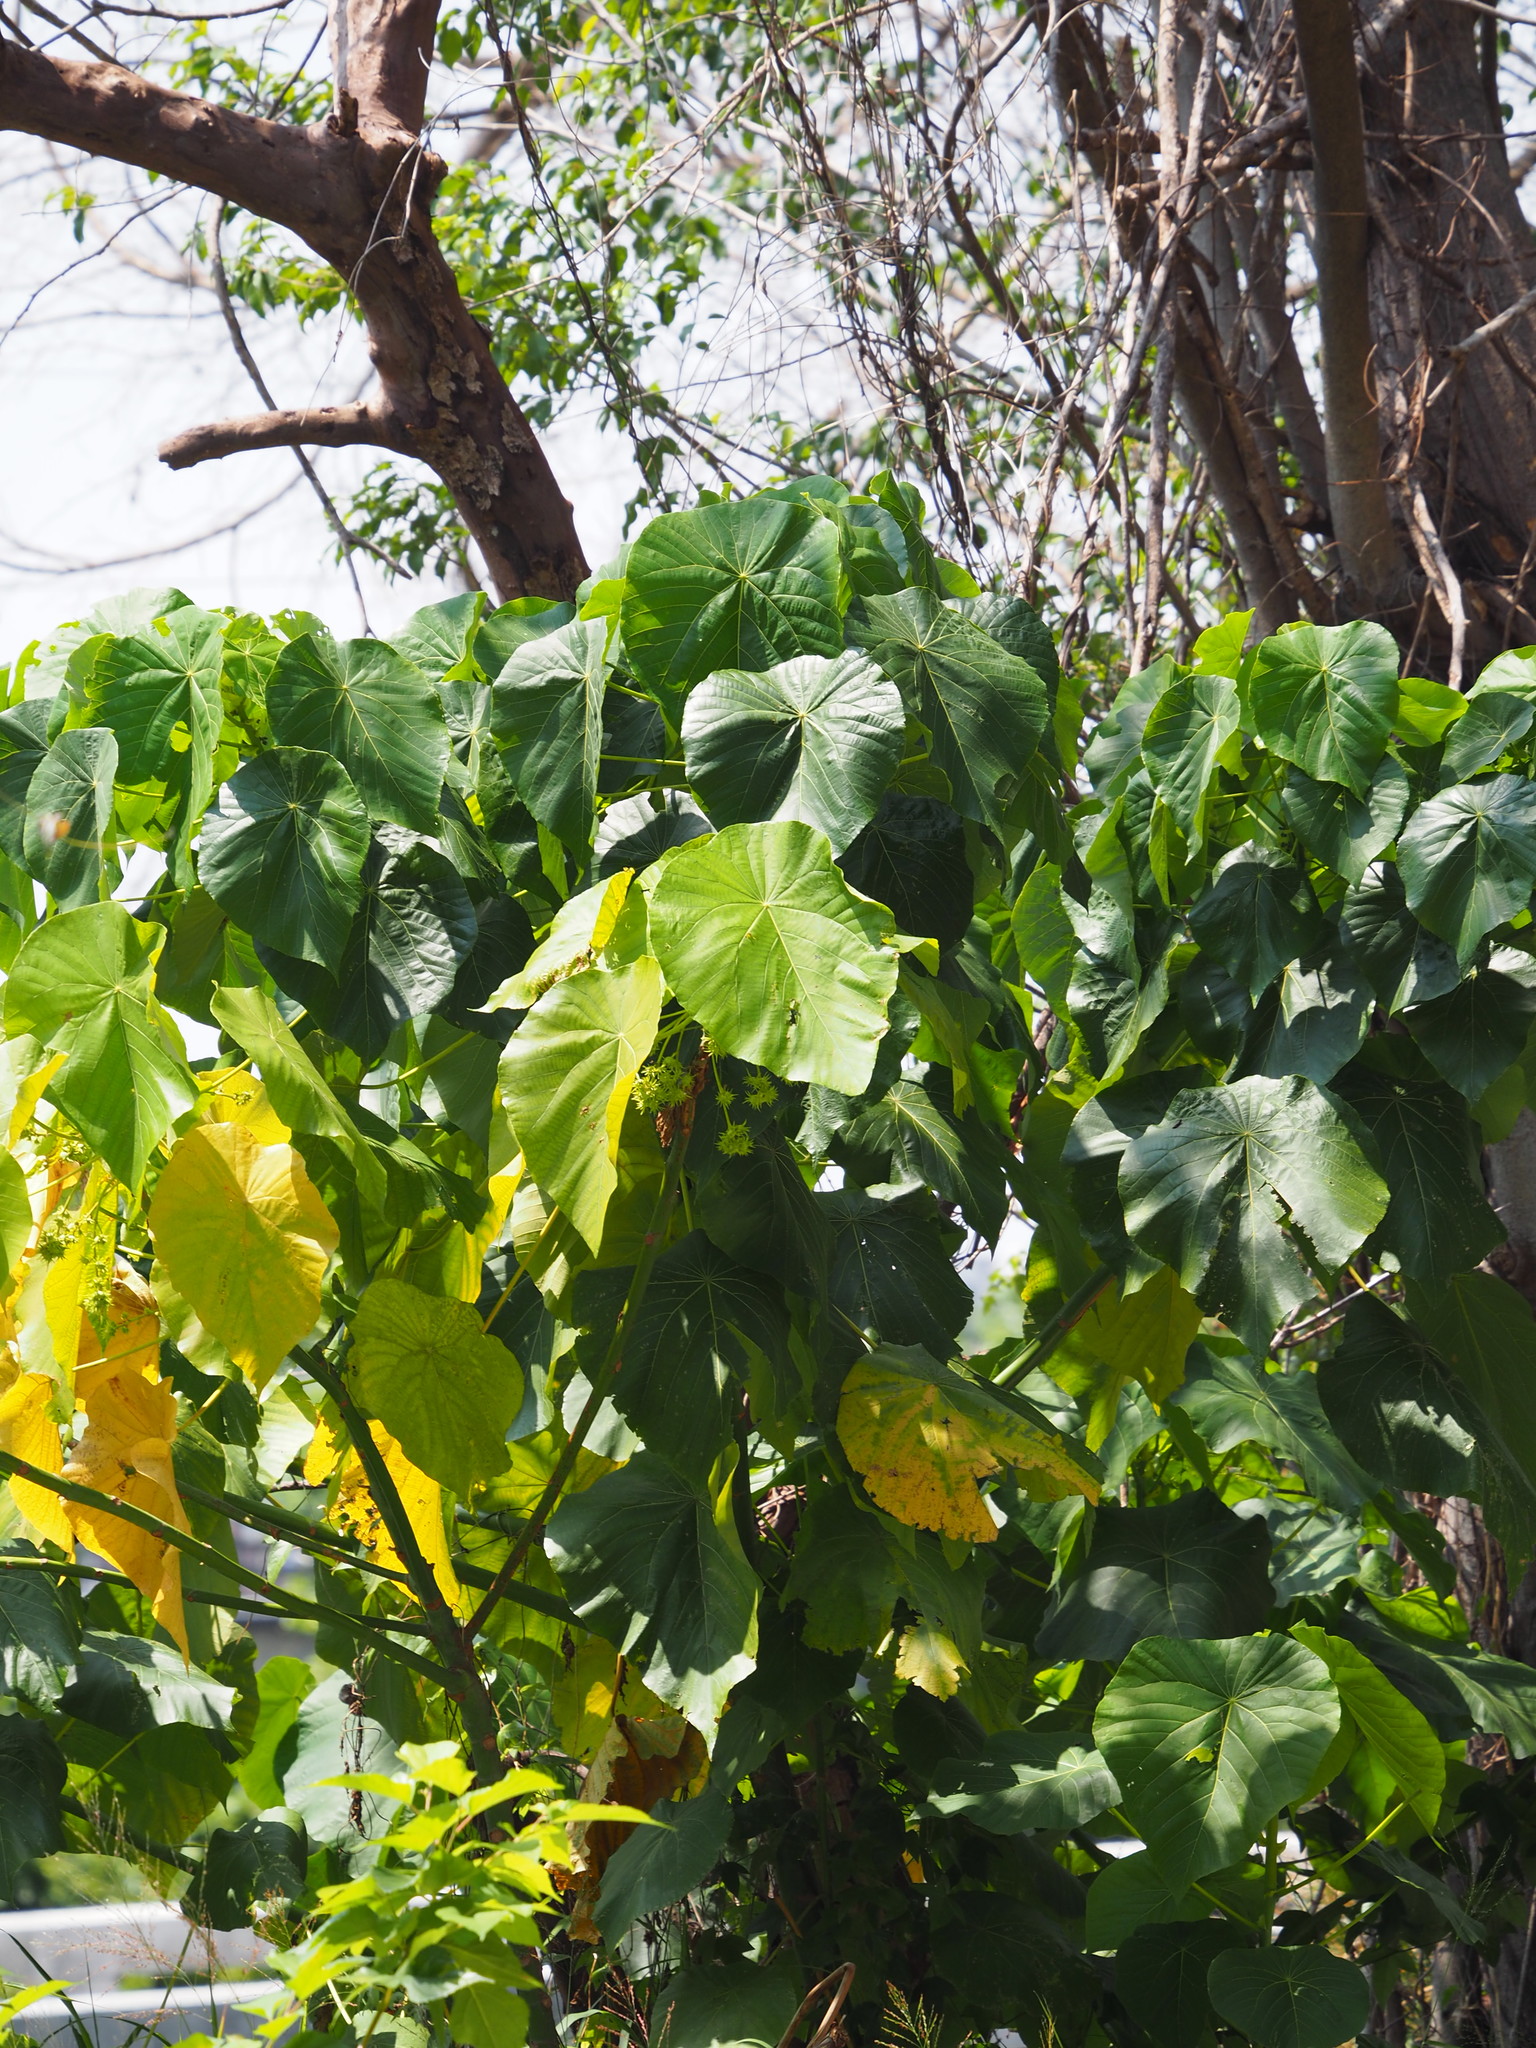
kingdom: Plantae
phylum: Tracheophyta
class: Magnoliopsida
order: Malpighiales
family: Euphorbiaceae
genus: Macaranga
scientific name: Macaranga tanarius
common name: Parasol leaf tree
